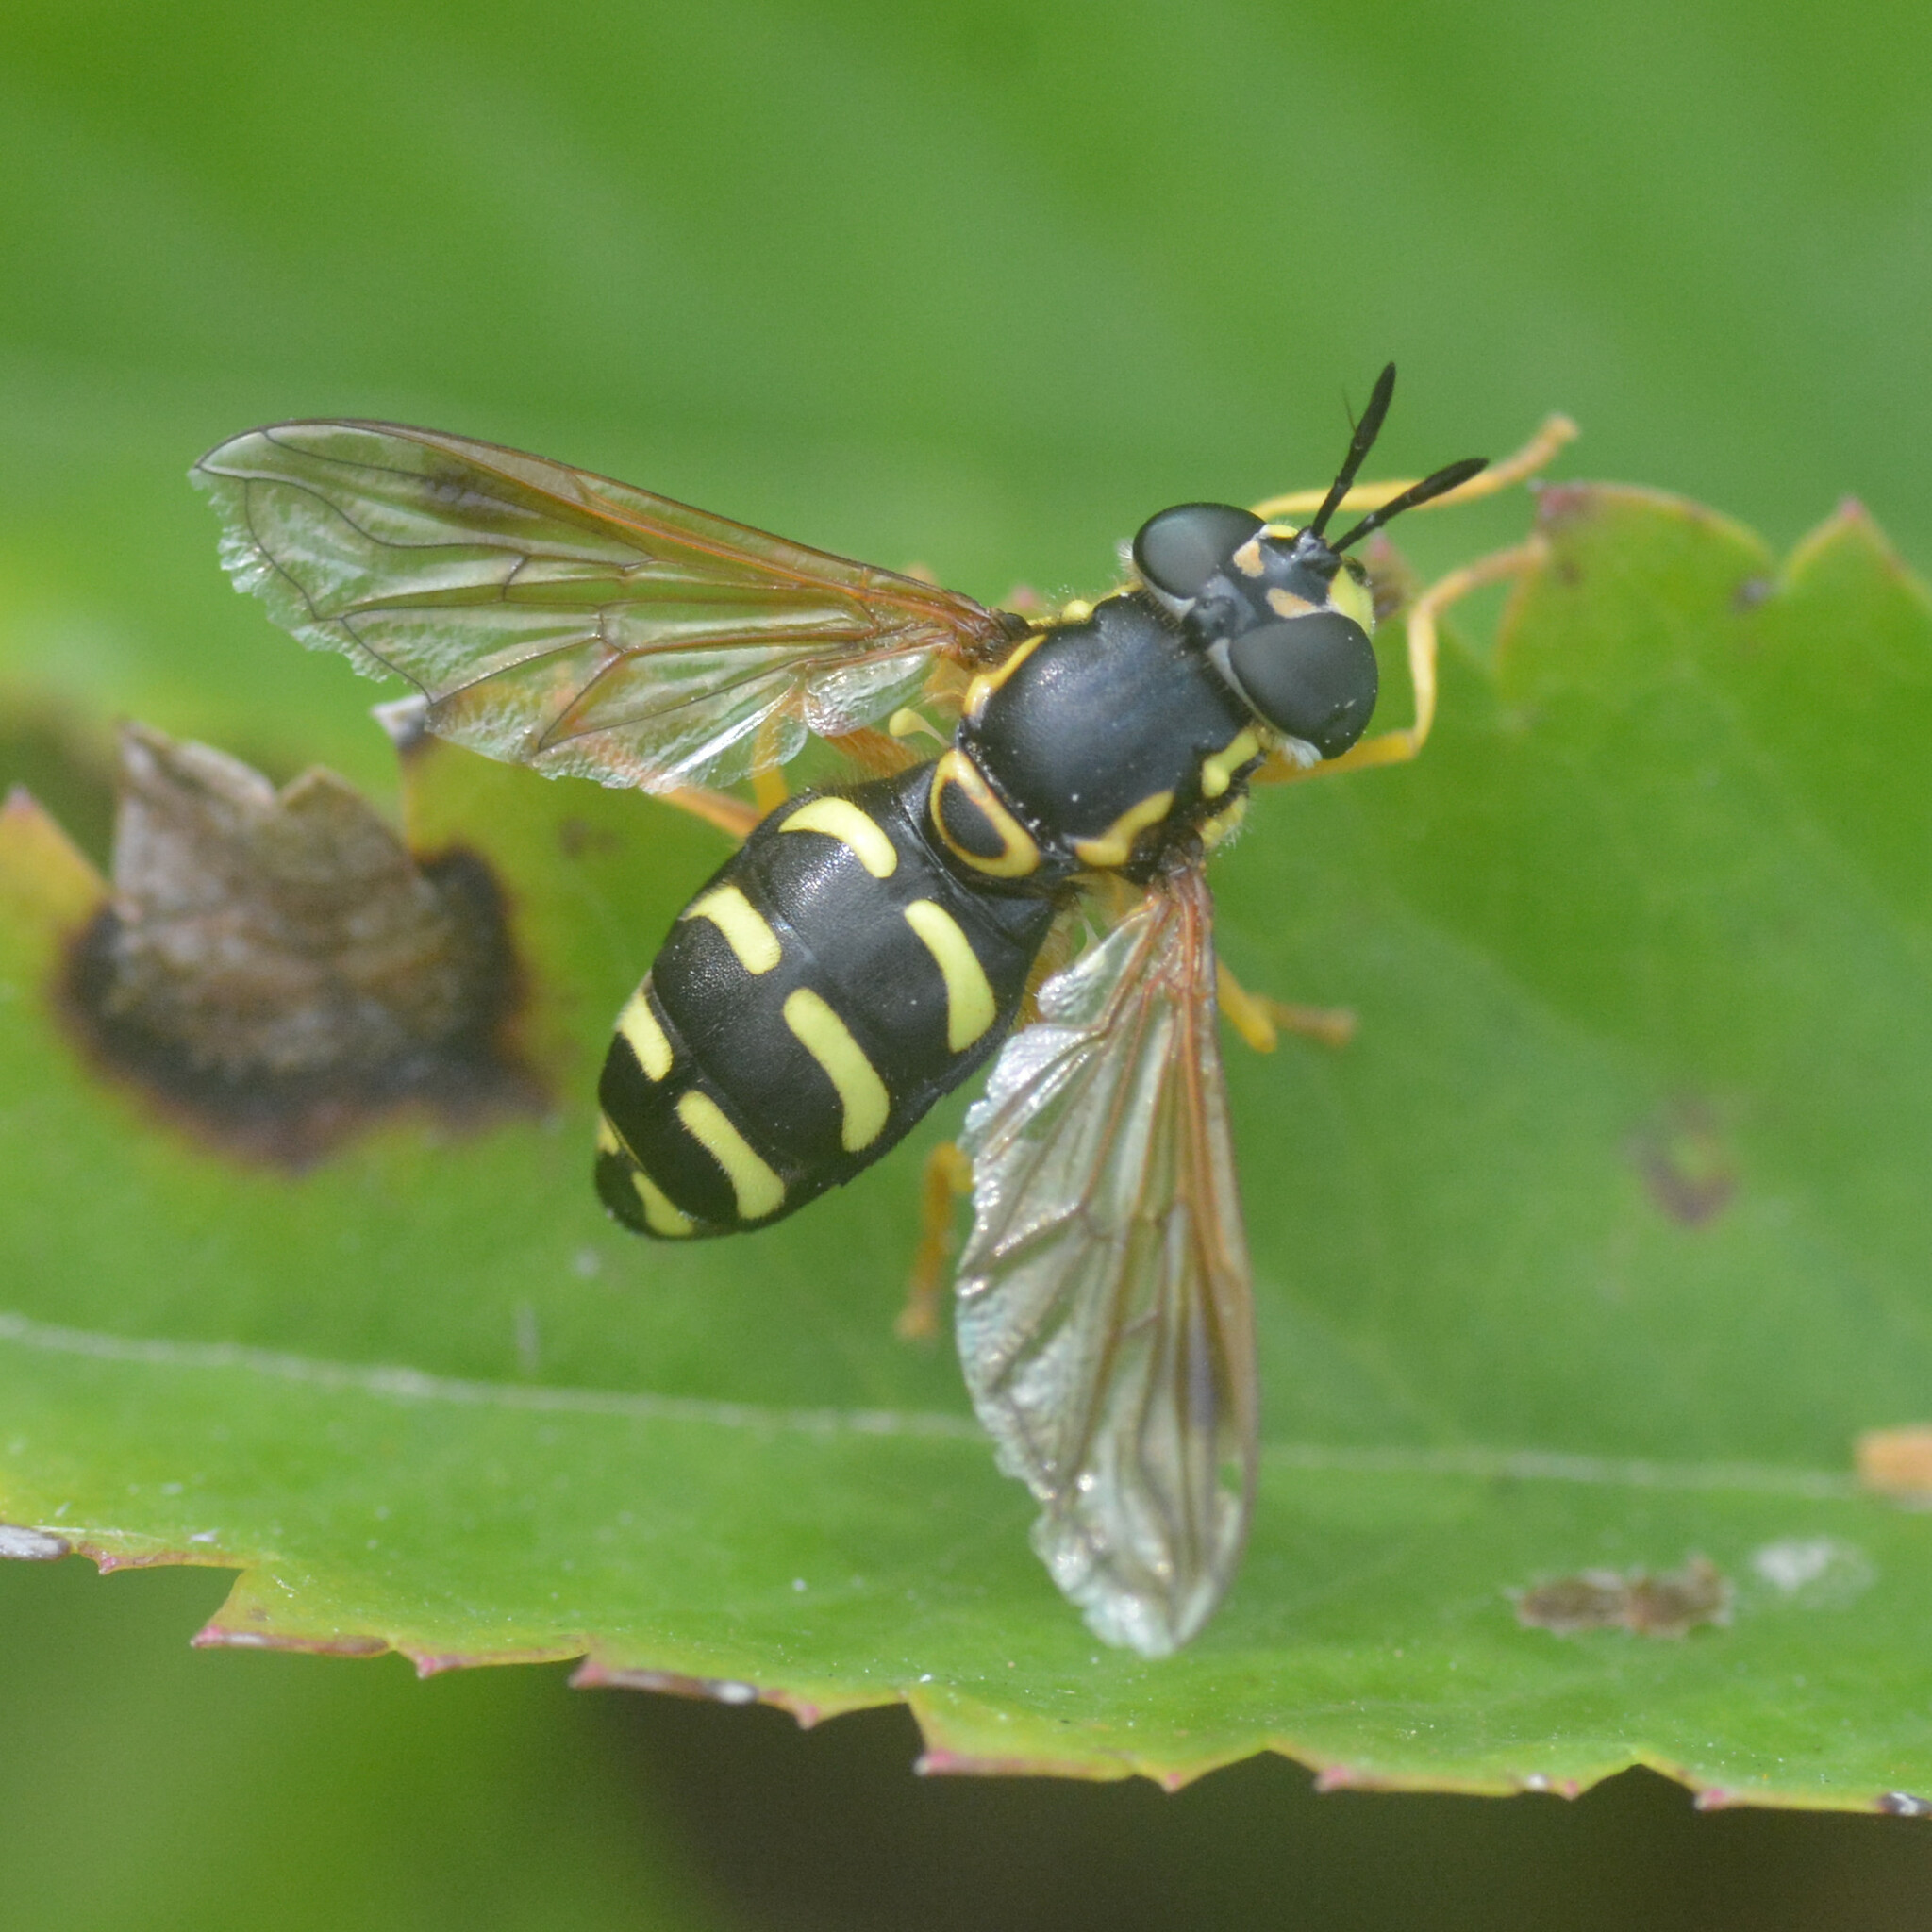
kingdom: Animalia
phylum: Arthropoda
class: Insecta
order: Diptera
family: Syrphidae
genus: Chrysotoxum
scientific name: Chrysotoxum festivum
